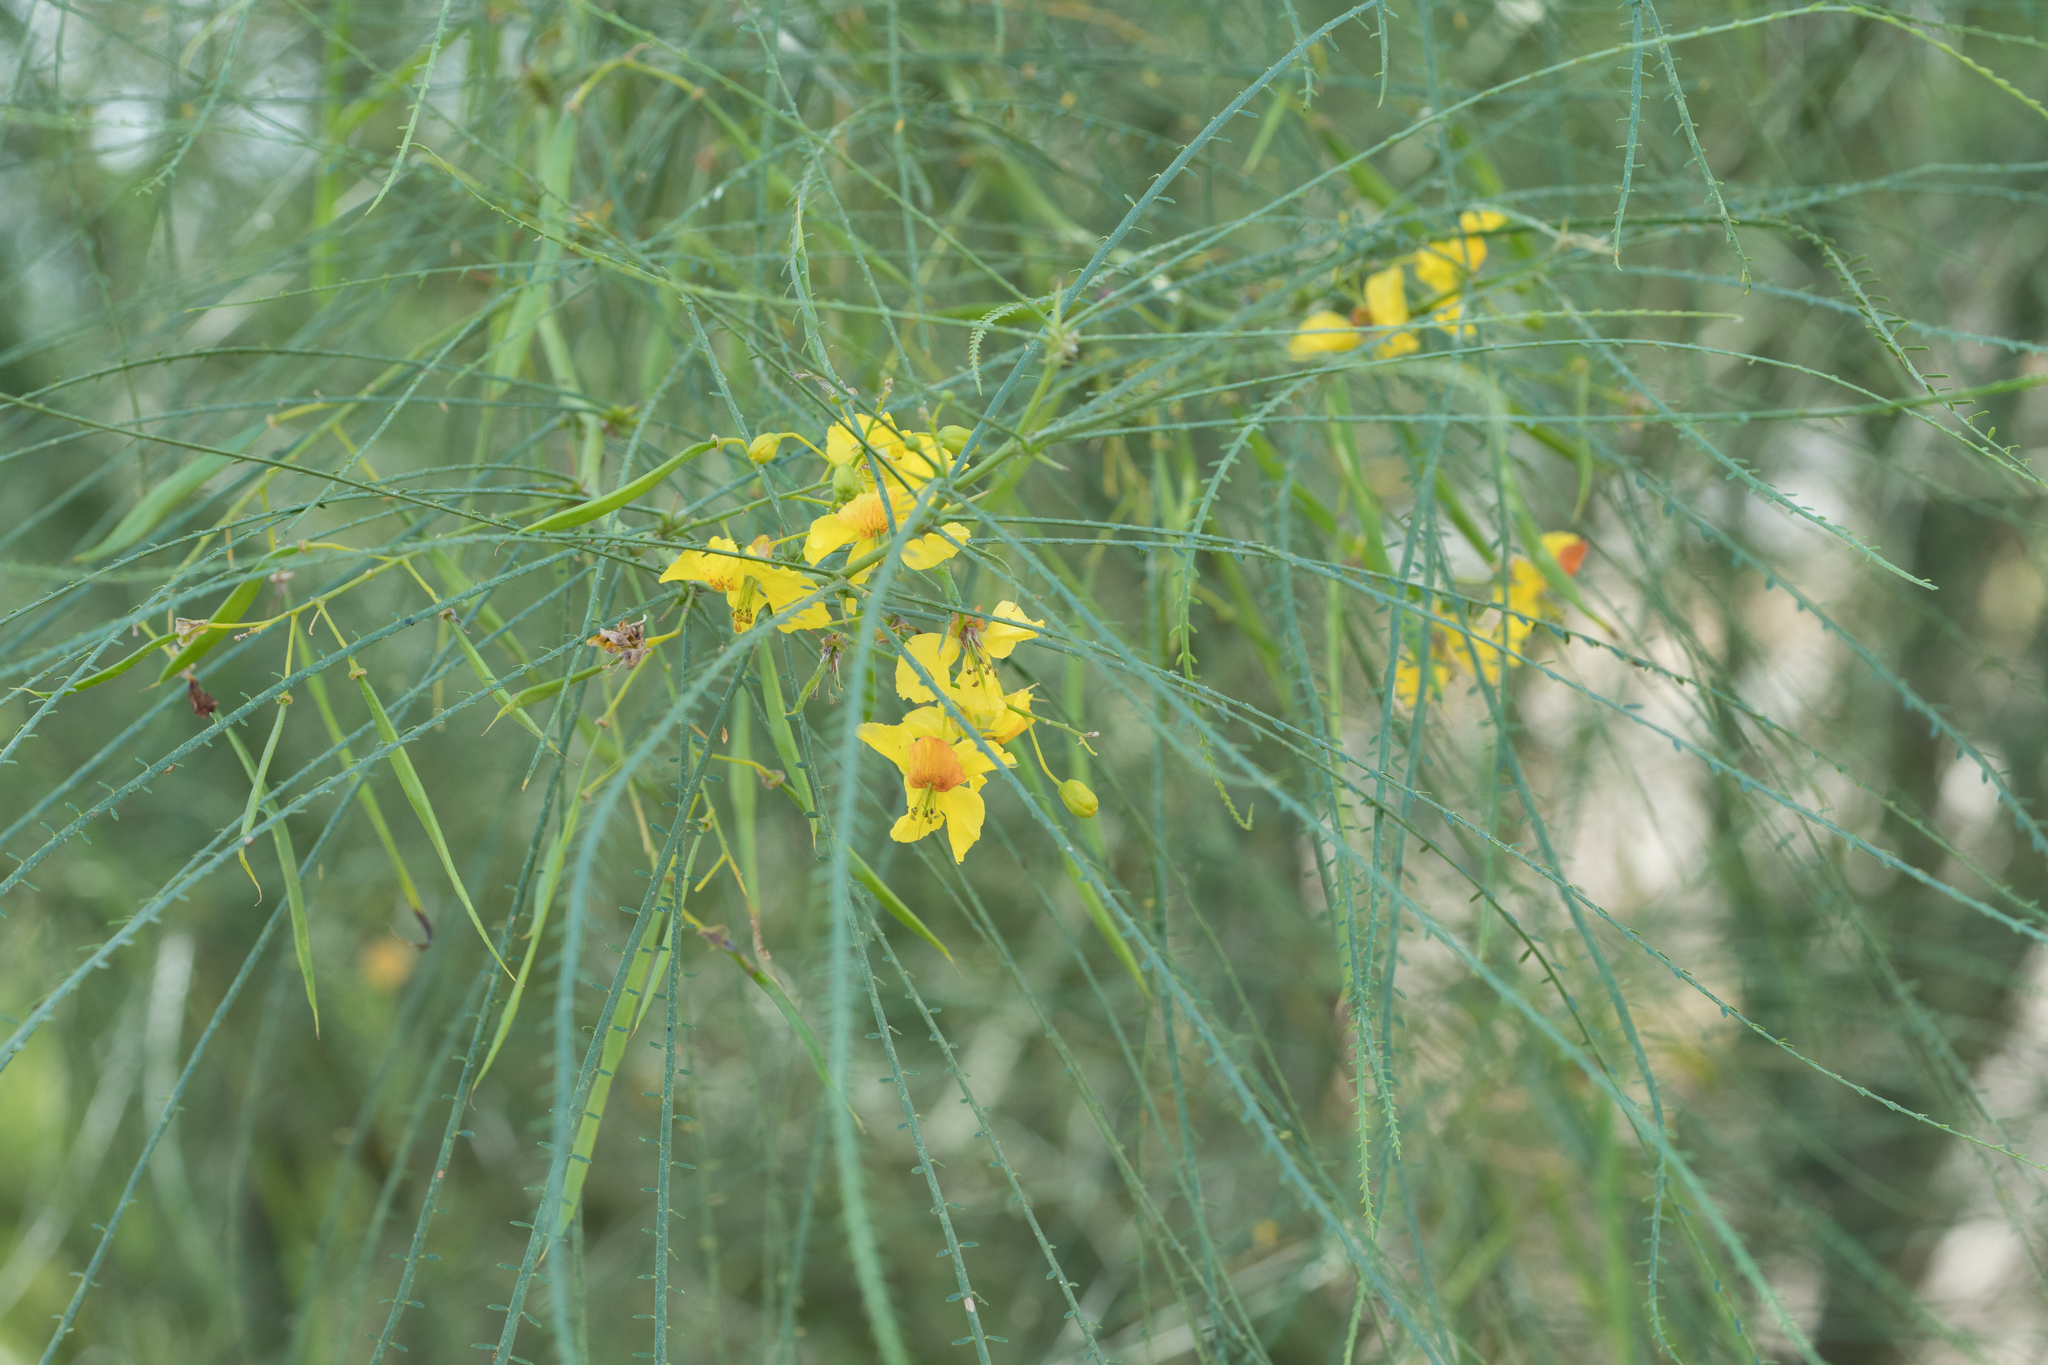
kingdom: Plantae
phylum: Tracheophyta
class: Magnoliopsida
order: Fabales
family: Fabaceae
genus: Parkinsonia
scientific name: Parkinsonia aculeata
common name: Jerusalem thorn
